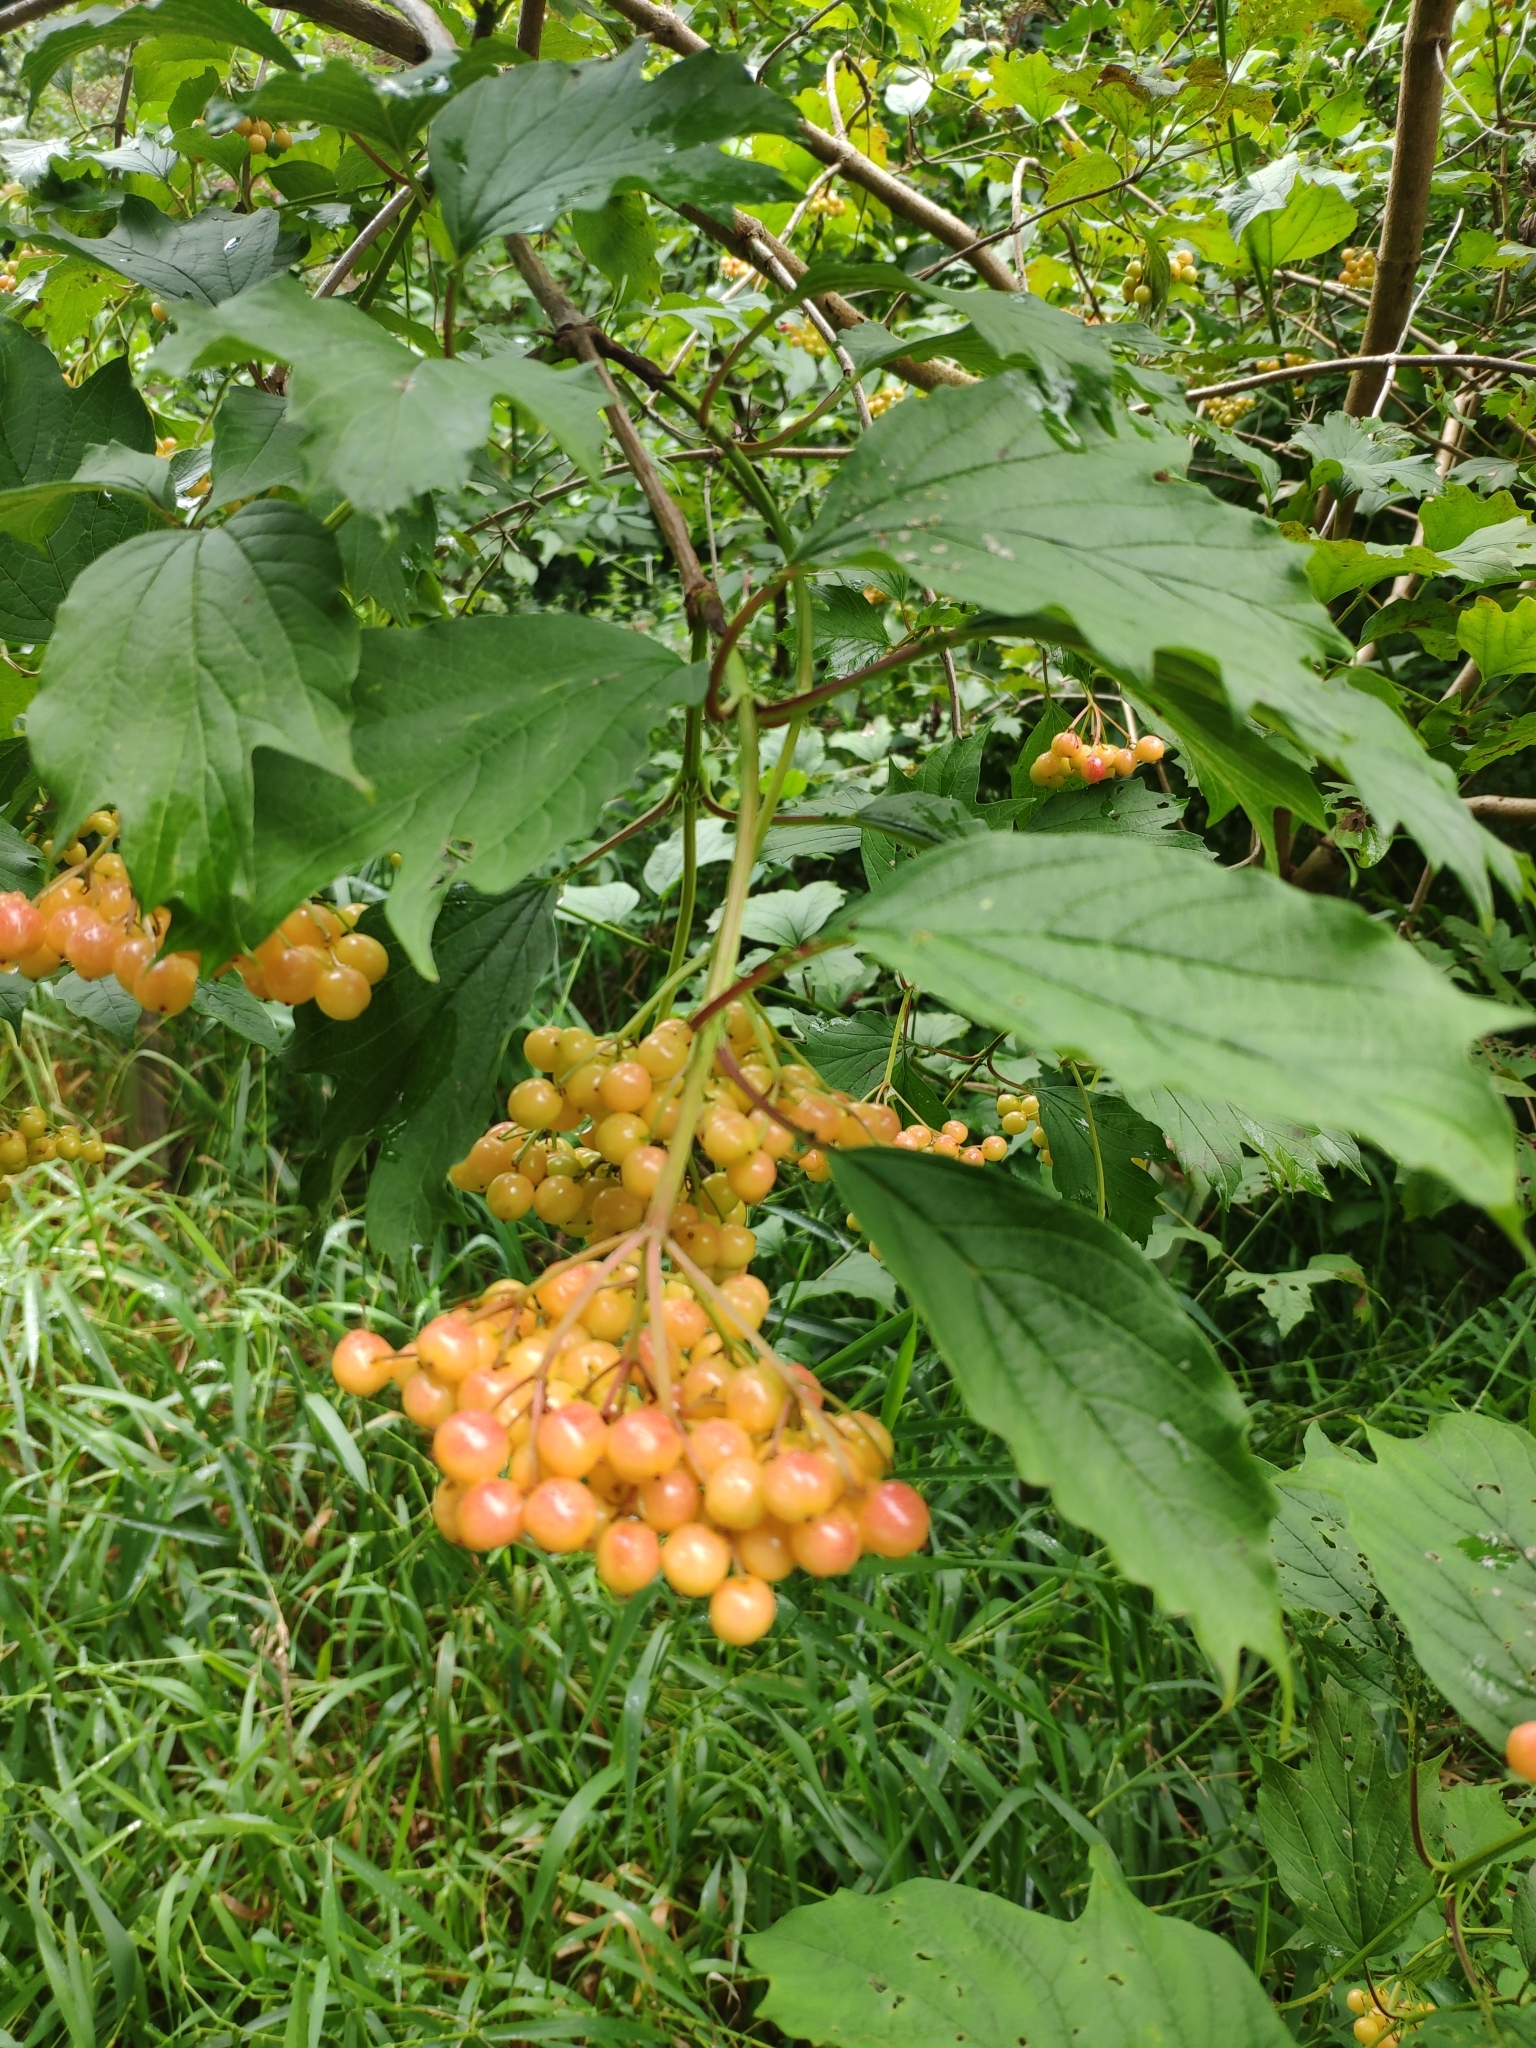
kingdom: Plantae
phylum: Tracheophyta
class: Magnoliopsida
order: Dipsacales
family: Viburnaceae
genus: Viburnum
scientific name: Viburnum opulus
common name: Guelder-rose
